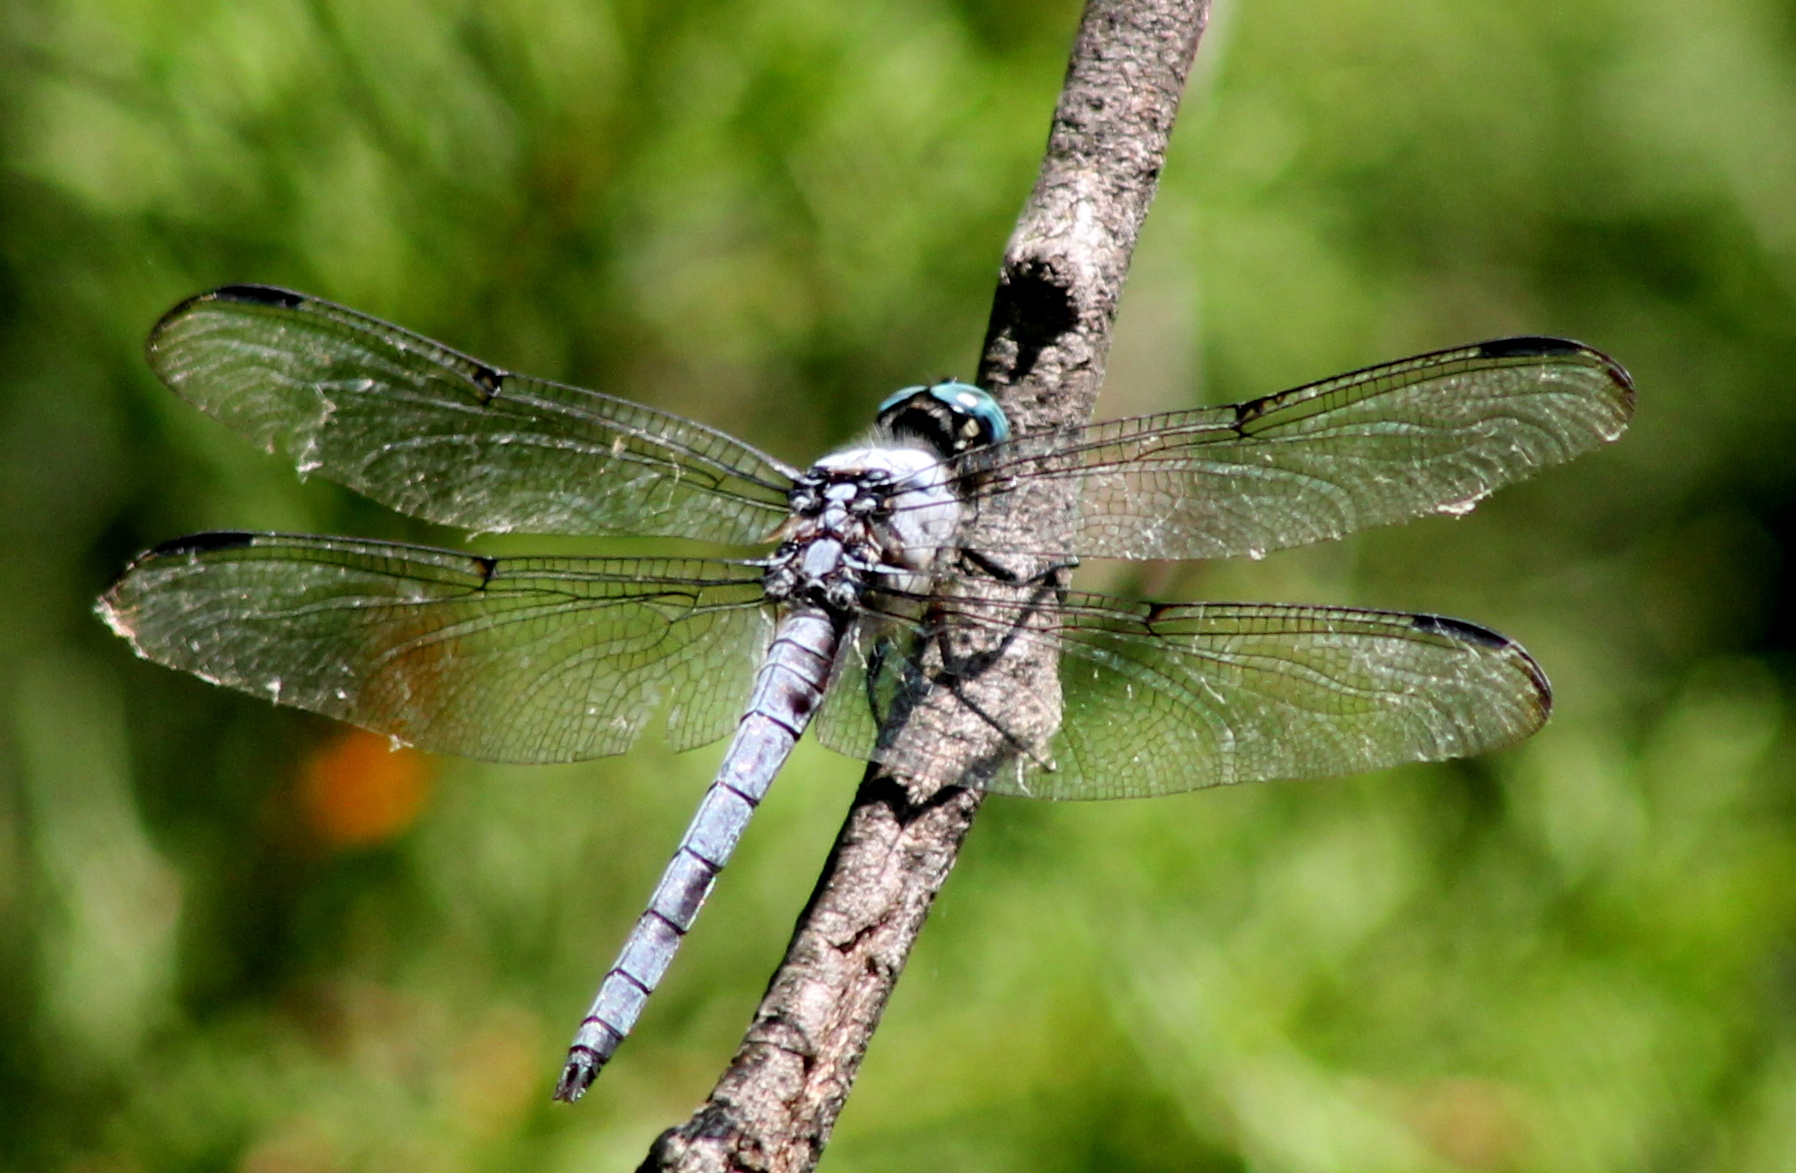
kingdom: Animalia
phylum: Arthropoda
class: Insecta
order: Odonata
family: Libellulidae
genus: Libellula
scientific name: Libellula vibrans
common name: Great blue skimmer
